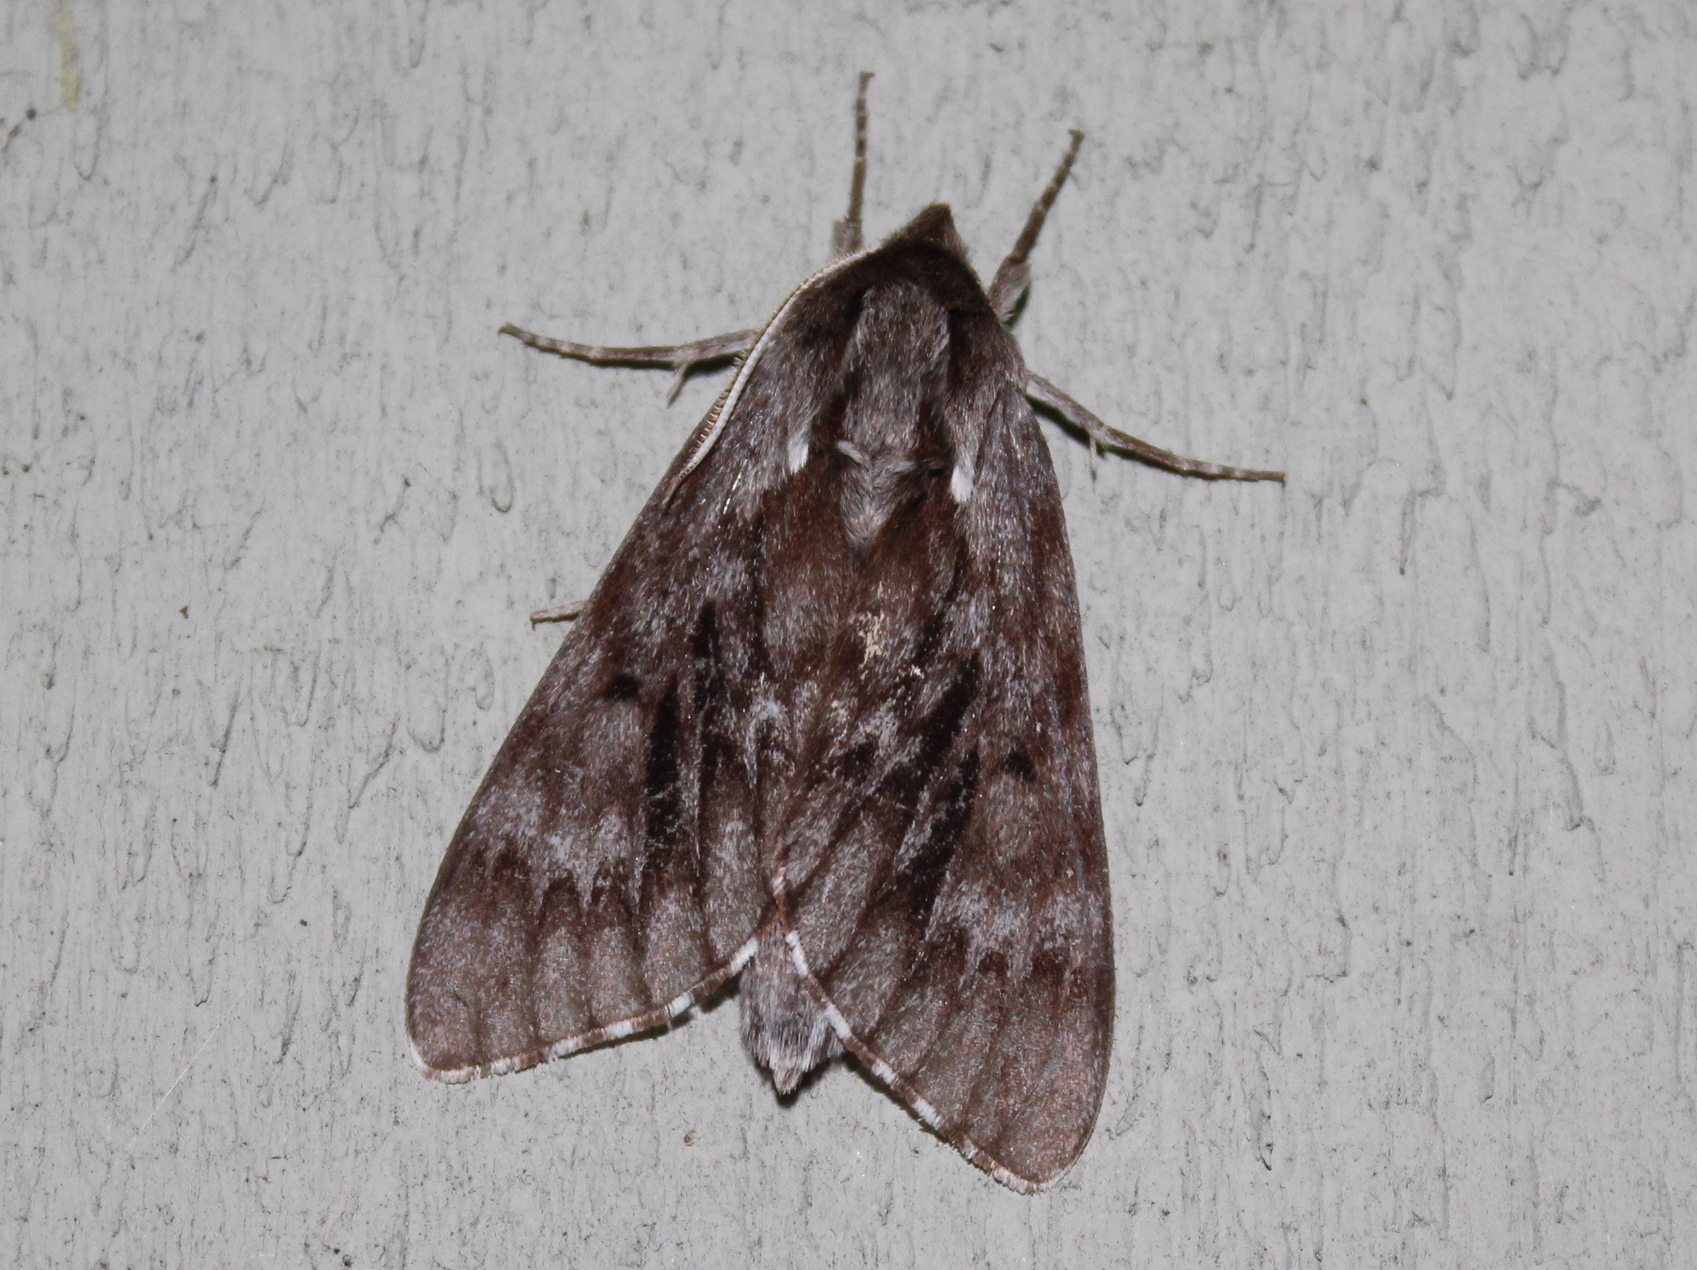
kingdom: Animalia
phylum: Arthropoda
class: Insecta
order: Lepidoptera
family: Sphingidae
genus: Lapara
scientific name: Lapara bombycoides
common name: Northern pine sphinx
